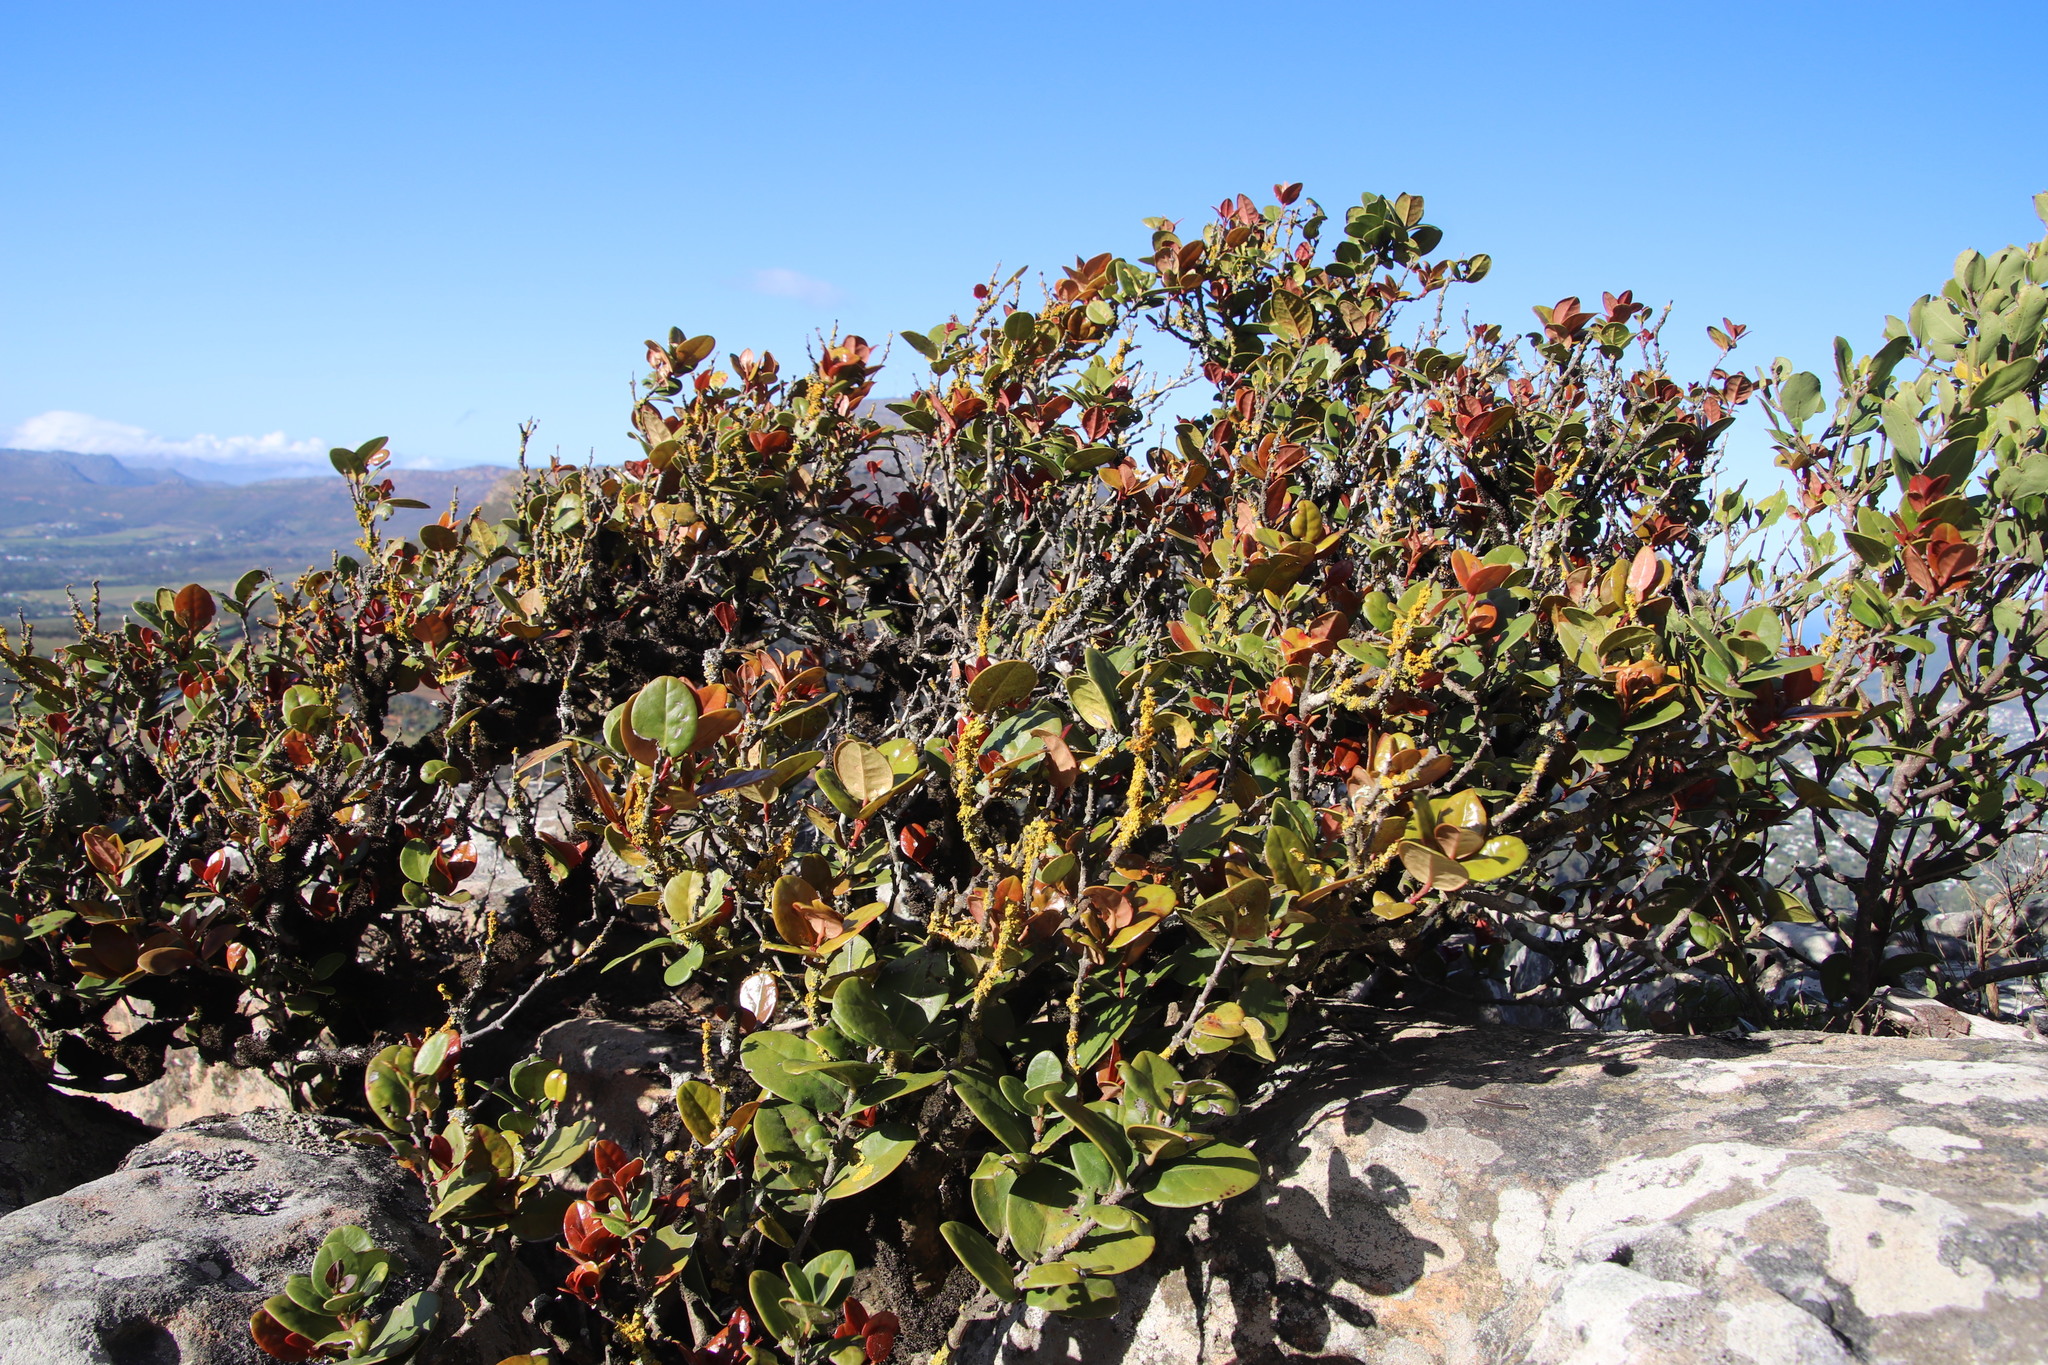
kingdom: Plantae
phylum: Tracheophyta
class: Magnoliopsida
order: Celastrales
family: Celastraceae
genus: Maurocenia
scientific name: Maurocenia frangula
